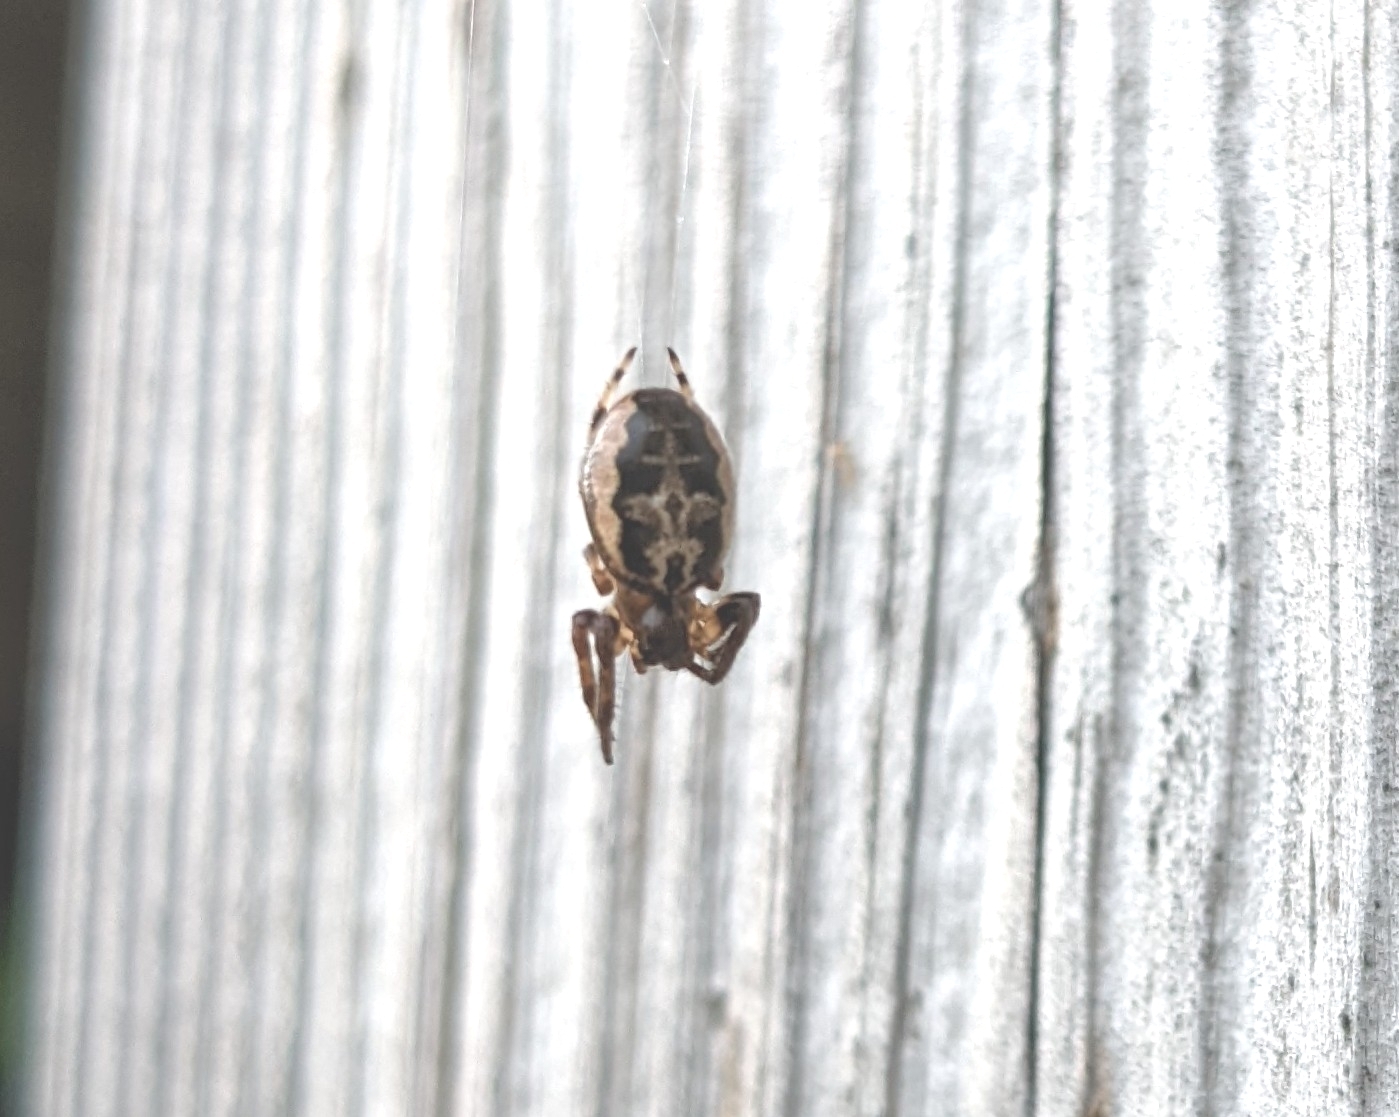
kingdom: Animalia
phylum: Arthropoda
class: Arachnida
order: Araneae
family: Araneidae
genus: Larinioides
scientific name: Larinioides cornutus
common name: Furrow orbweaver
